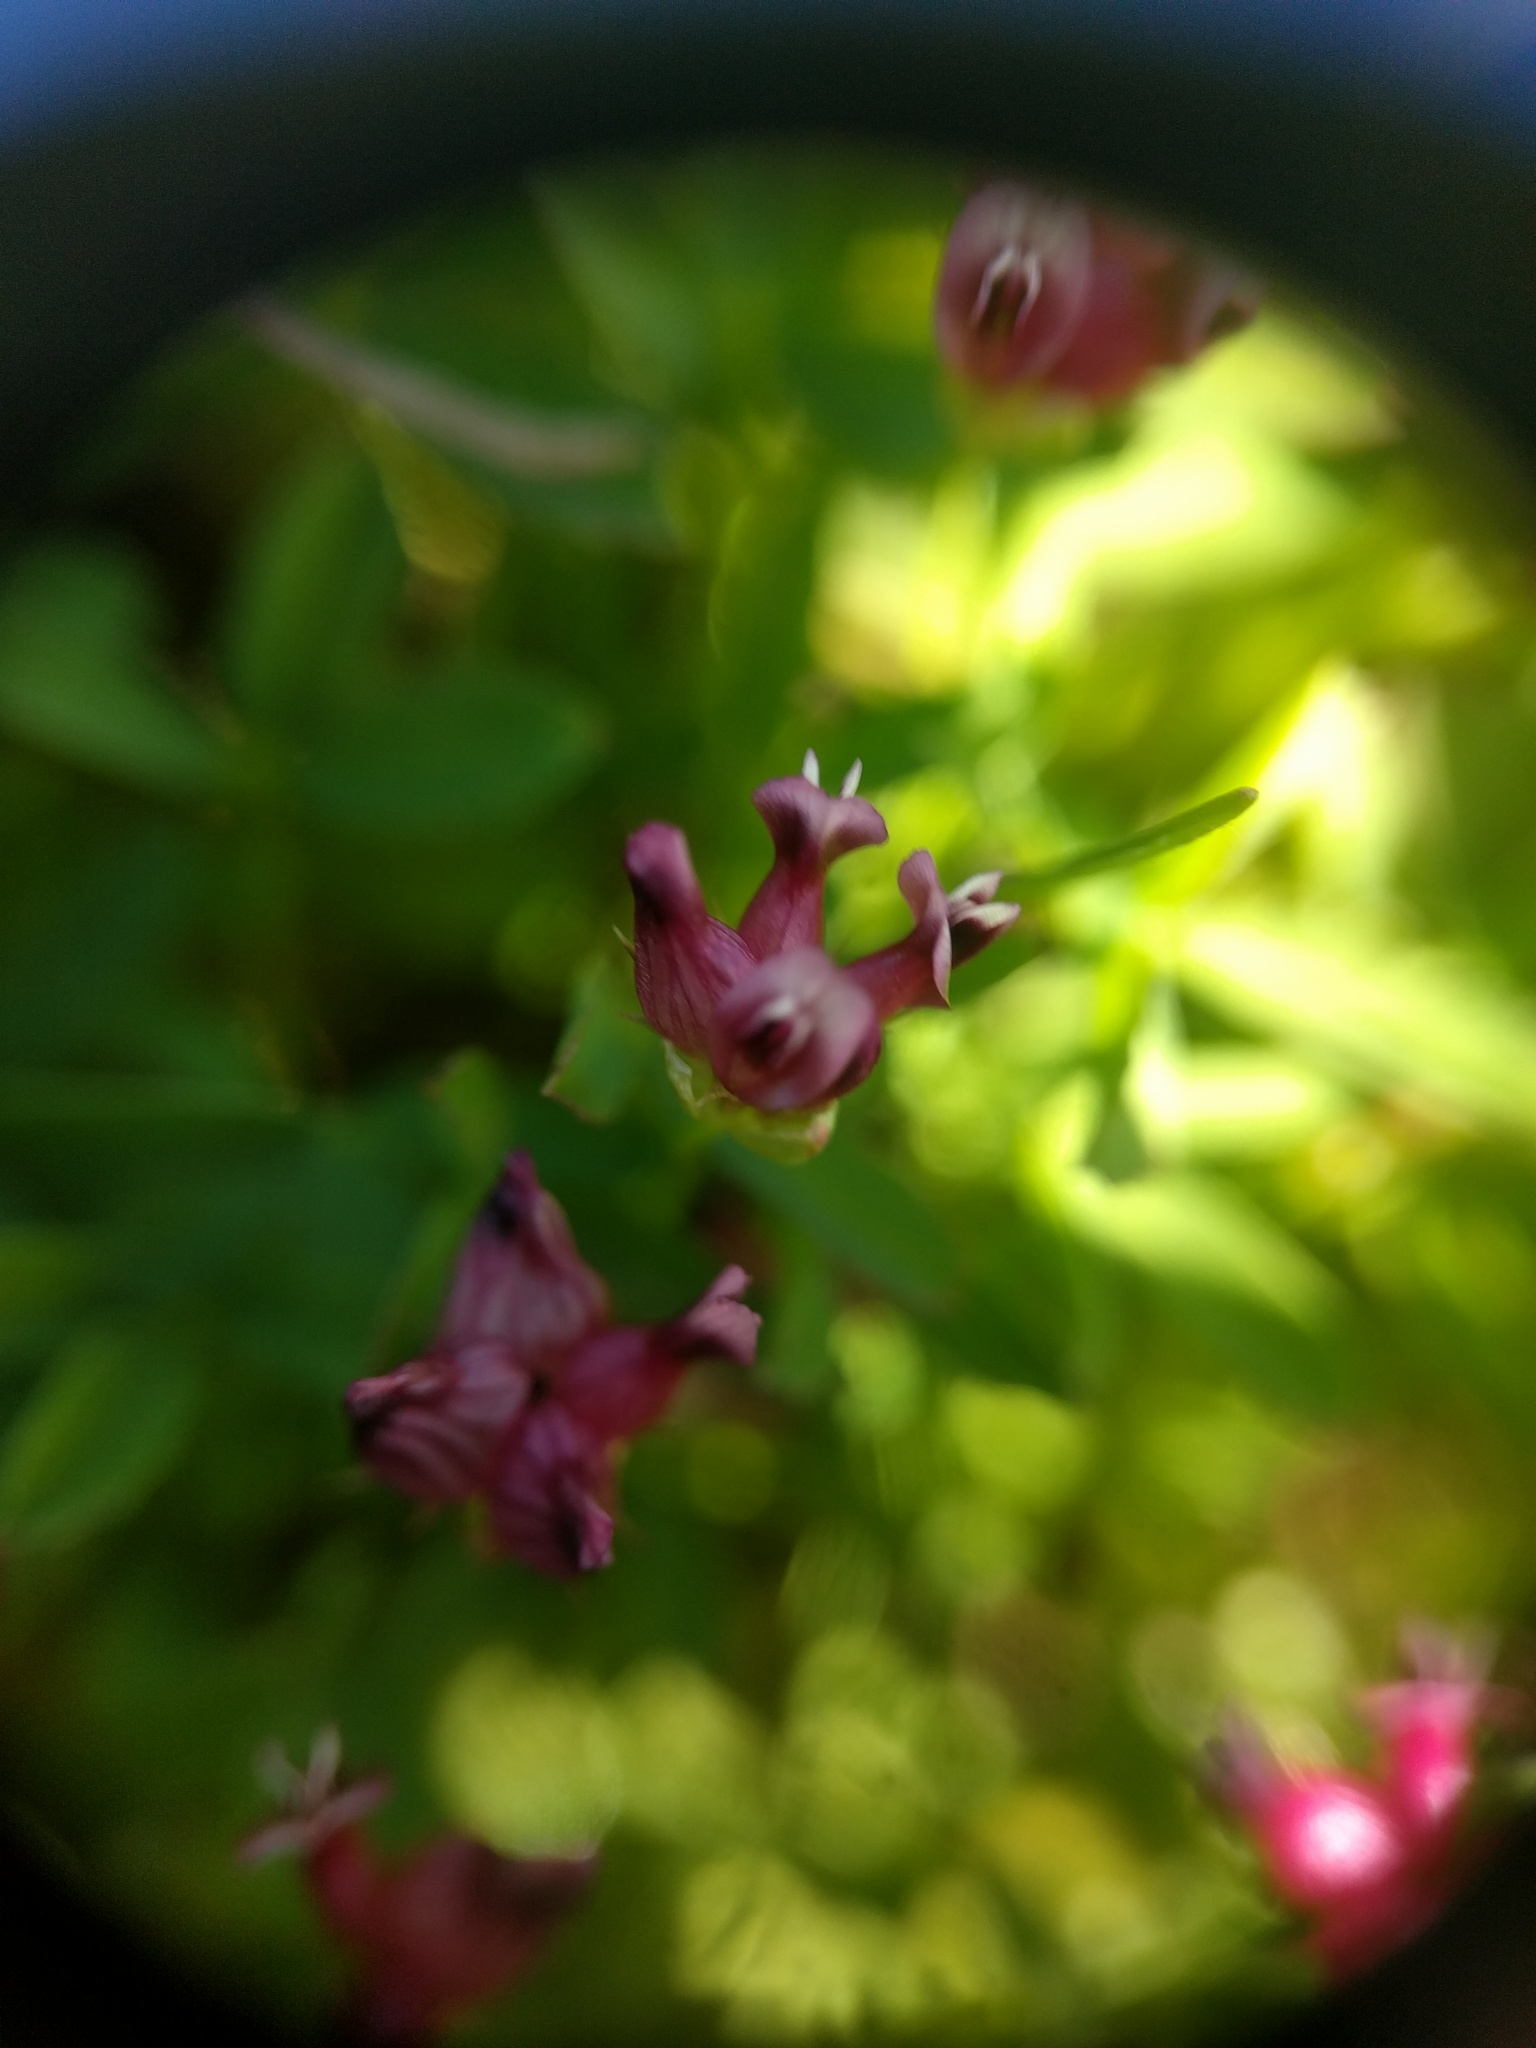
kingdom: Plantae
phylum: Tracheophyta
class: Magnoliopsida
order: Fabales
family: Fabaceae
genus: Trifolium
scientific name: Trifolium depauperatum
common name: Poverty clover
